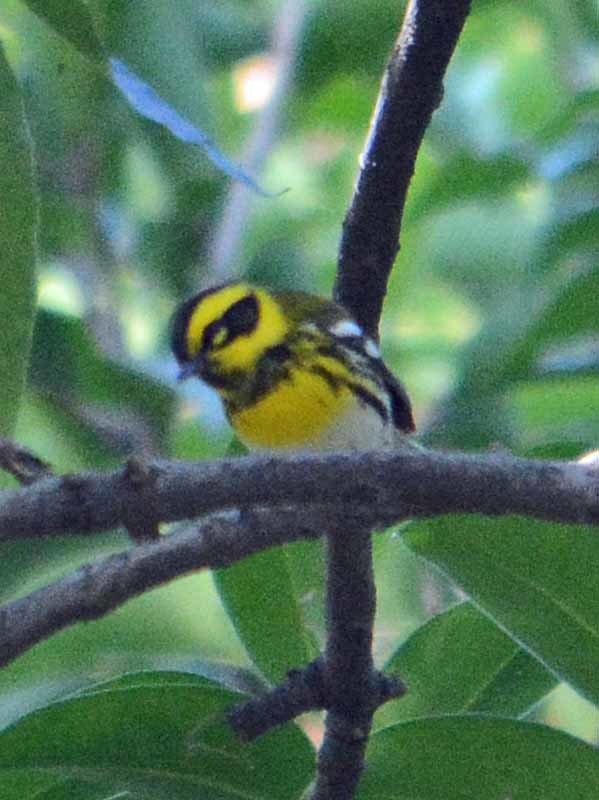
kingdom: Animalia
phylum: Chordata
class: Aves
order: Passeriformes
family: Parulidae
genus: Setophaga
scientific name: Setophaga townsendi
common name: Townsend's warbler
